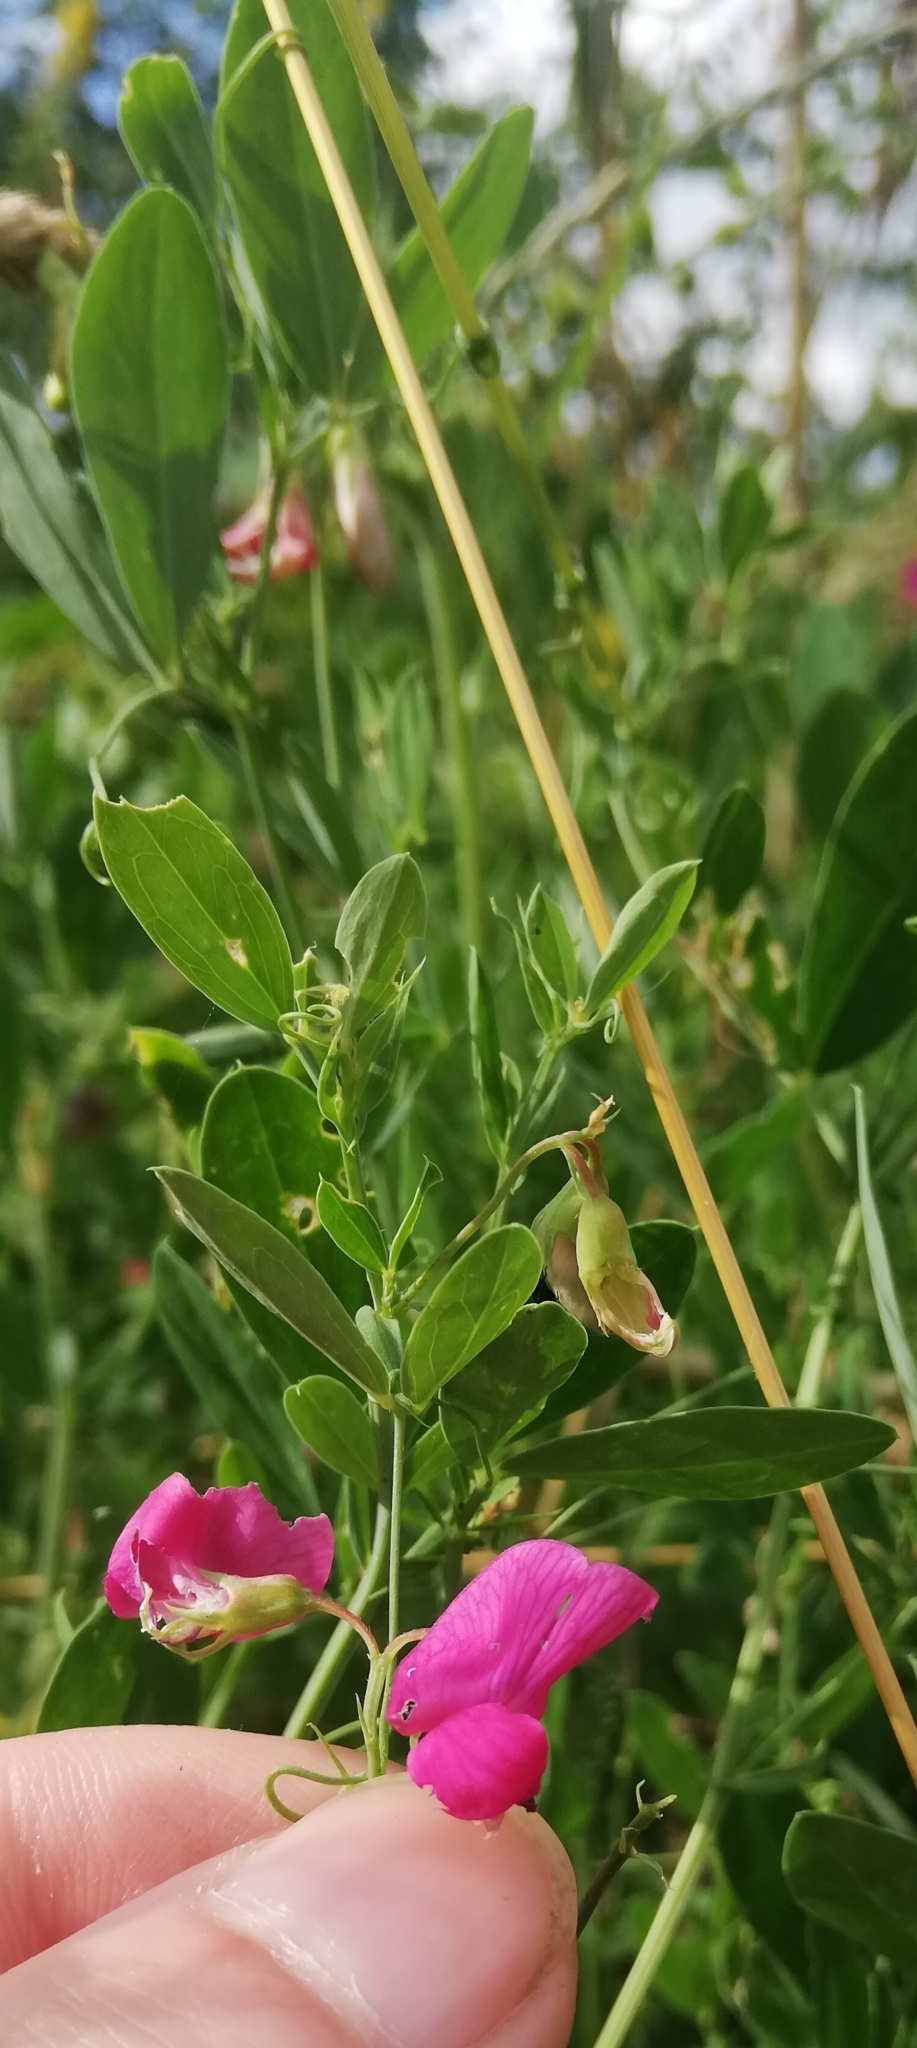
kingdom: Plantae
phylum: Tracheophyta
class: Magnoliopsida
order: Fabales
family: Fabaceae
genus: Lathyrus
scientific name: Lathyrus tuberosus
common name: Tuberous pea
